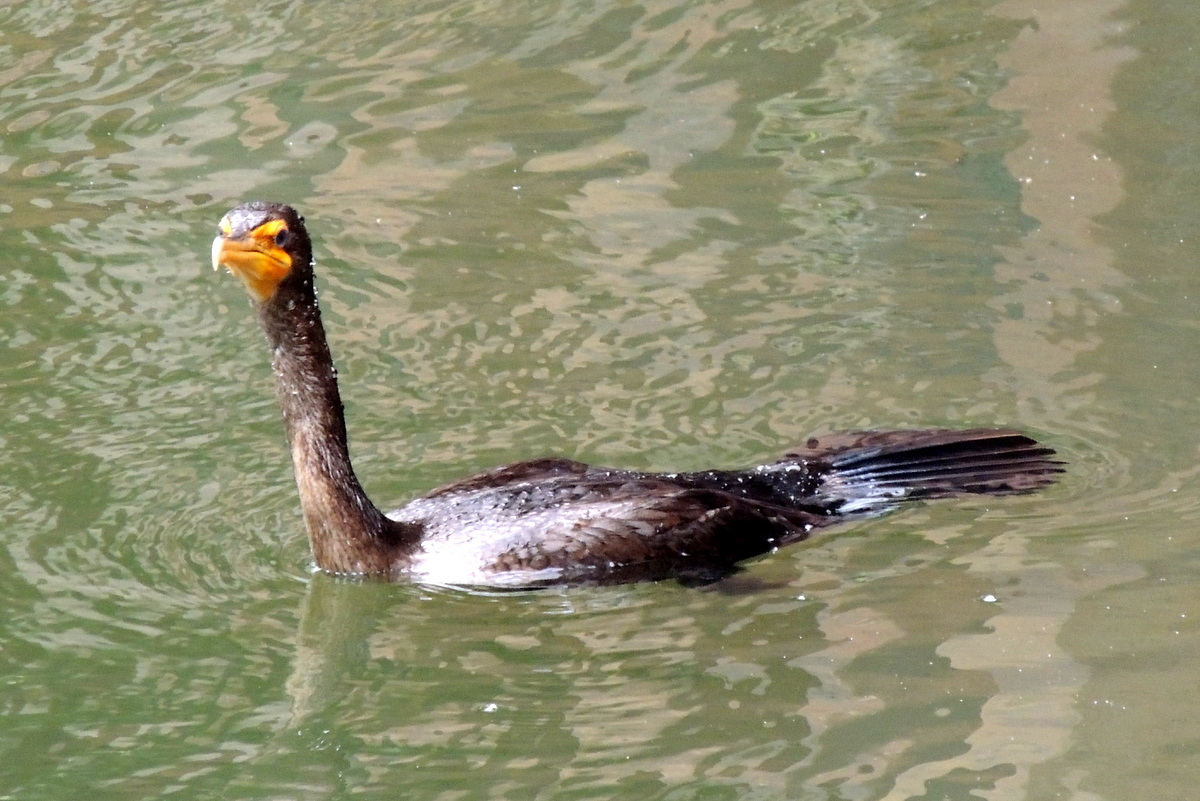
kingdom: Animalia
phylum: Chordata
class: Aves
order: Suliformes
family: Phalacrocoracidae
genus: Phalacrocorax
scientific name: Phalacrocorax auritus
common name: Double-crested cormorant
